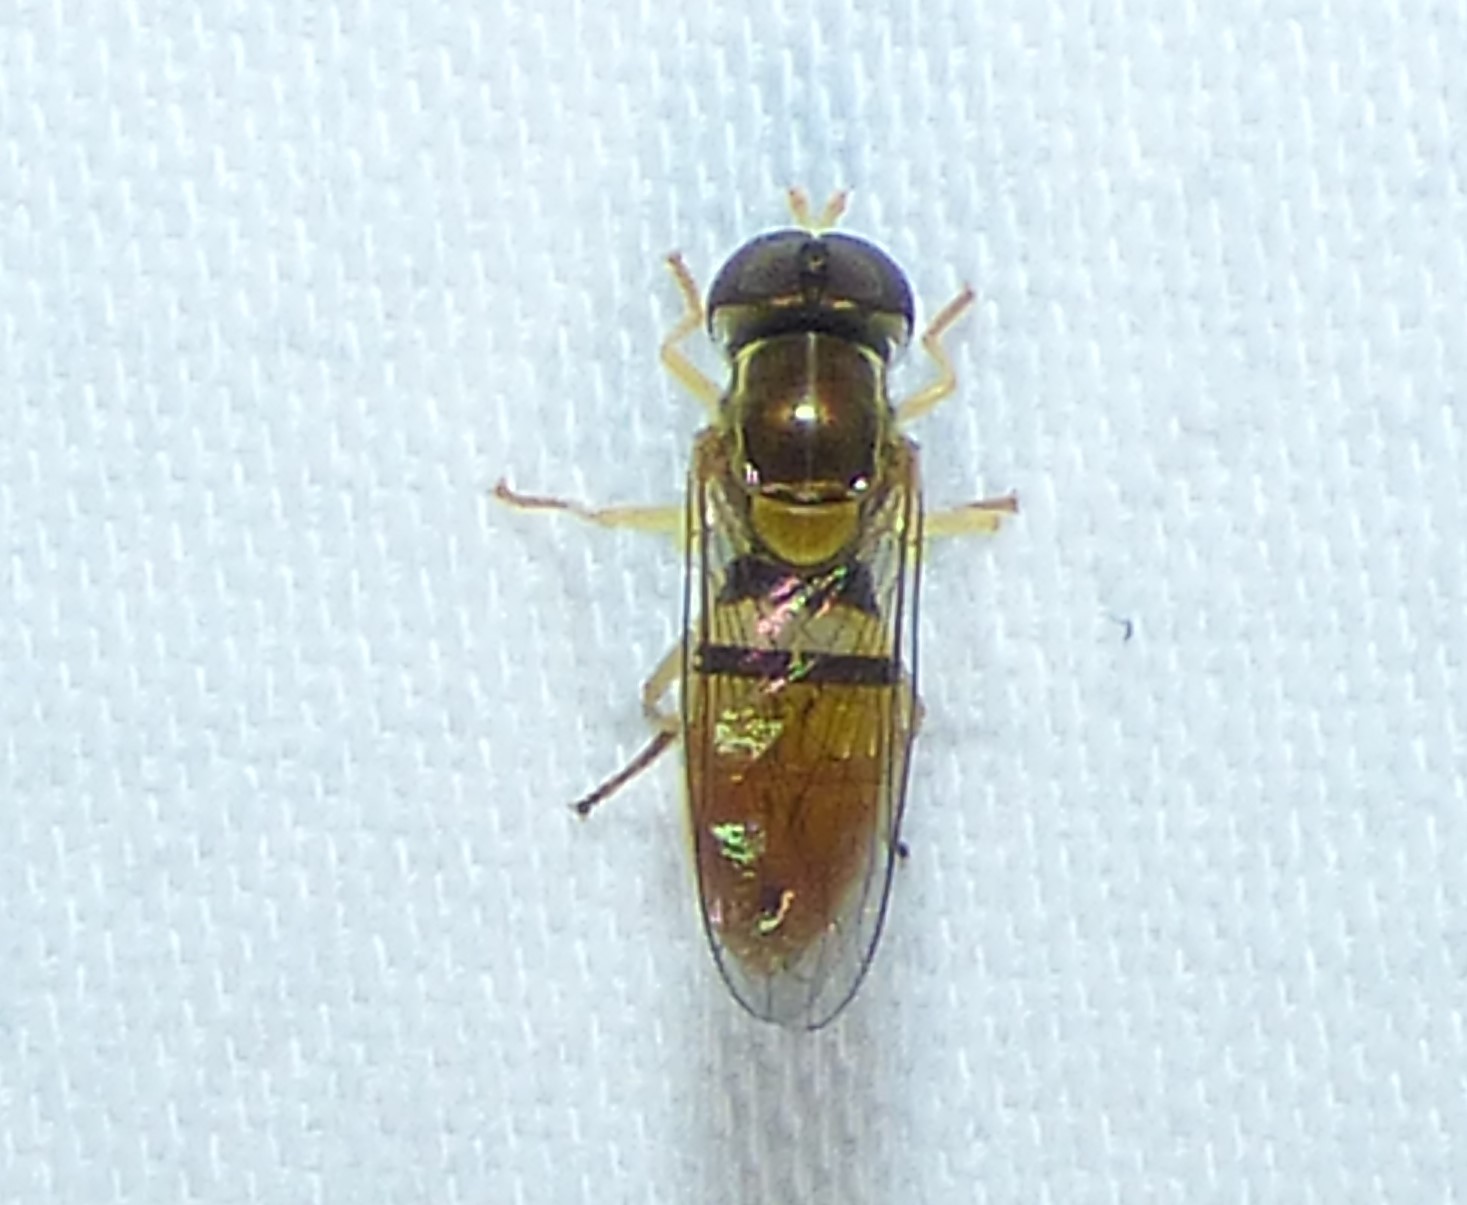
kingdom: Animalia
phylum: Arthropoda
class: Insecta
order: Diptera
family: Syrphidae
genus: Toxomerus
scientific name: Toxomerus marginatus
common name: Syrphid fly
